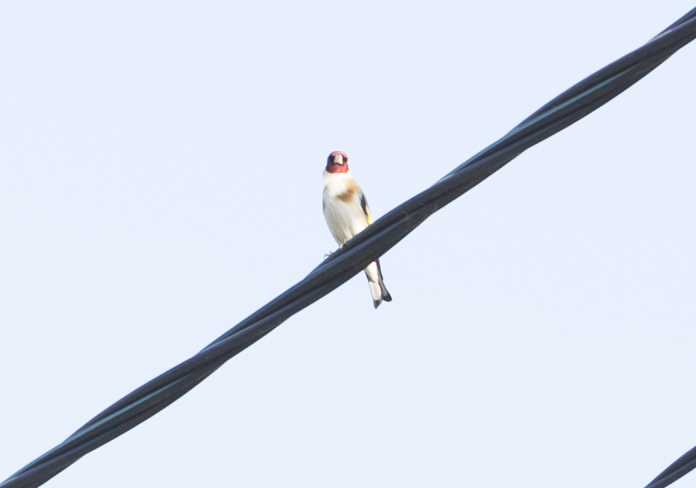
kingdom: Animalia
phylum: Chordata
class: Aves
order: Passeriformes
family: Fringillidae
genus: Carduelis
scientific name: Carduelis carduelis
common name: European goldfinch
